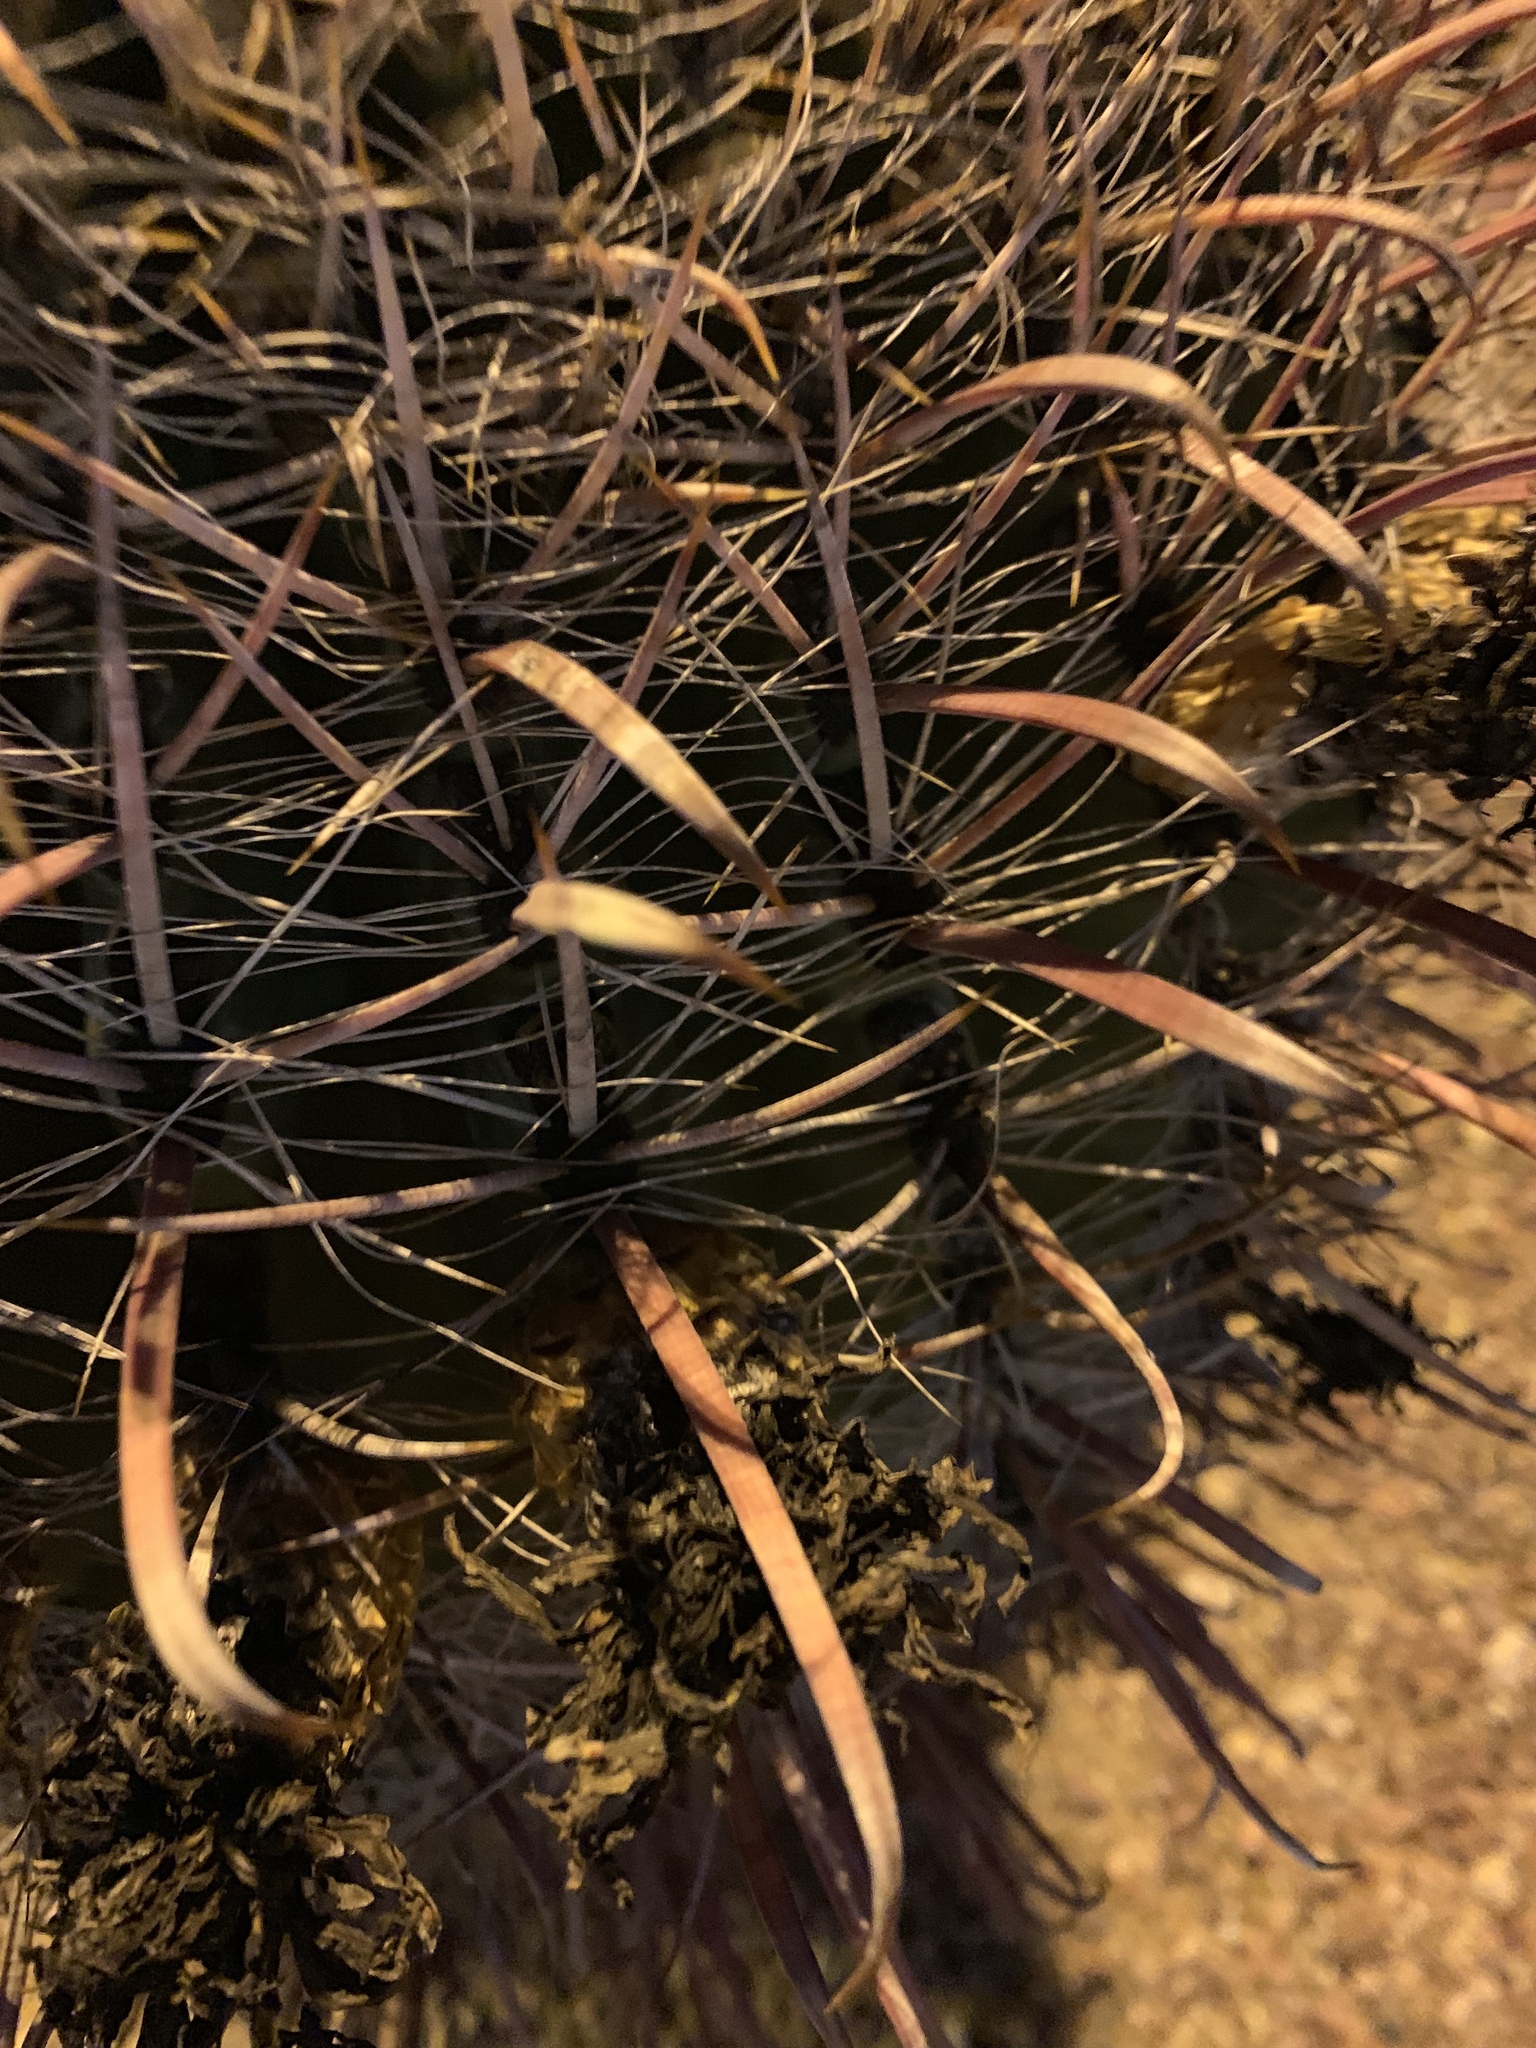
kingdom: Plantae
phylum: Tracheophyta
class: Magnoliopsida
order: Caryophyllales
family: Cactaceae
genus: Ferocactus
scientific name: Ferocactus wislizeni
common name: Candy barrel cactus
